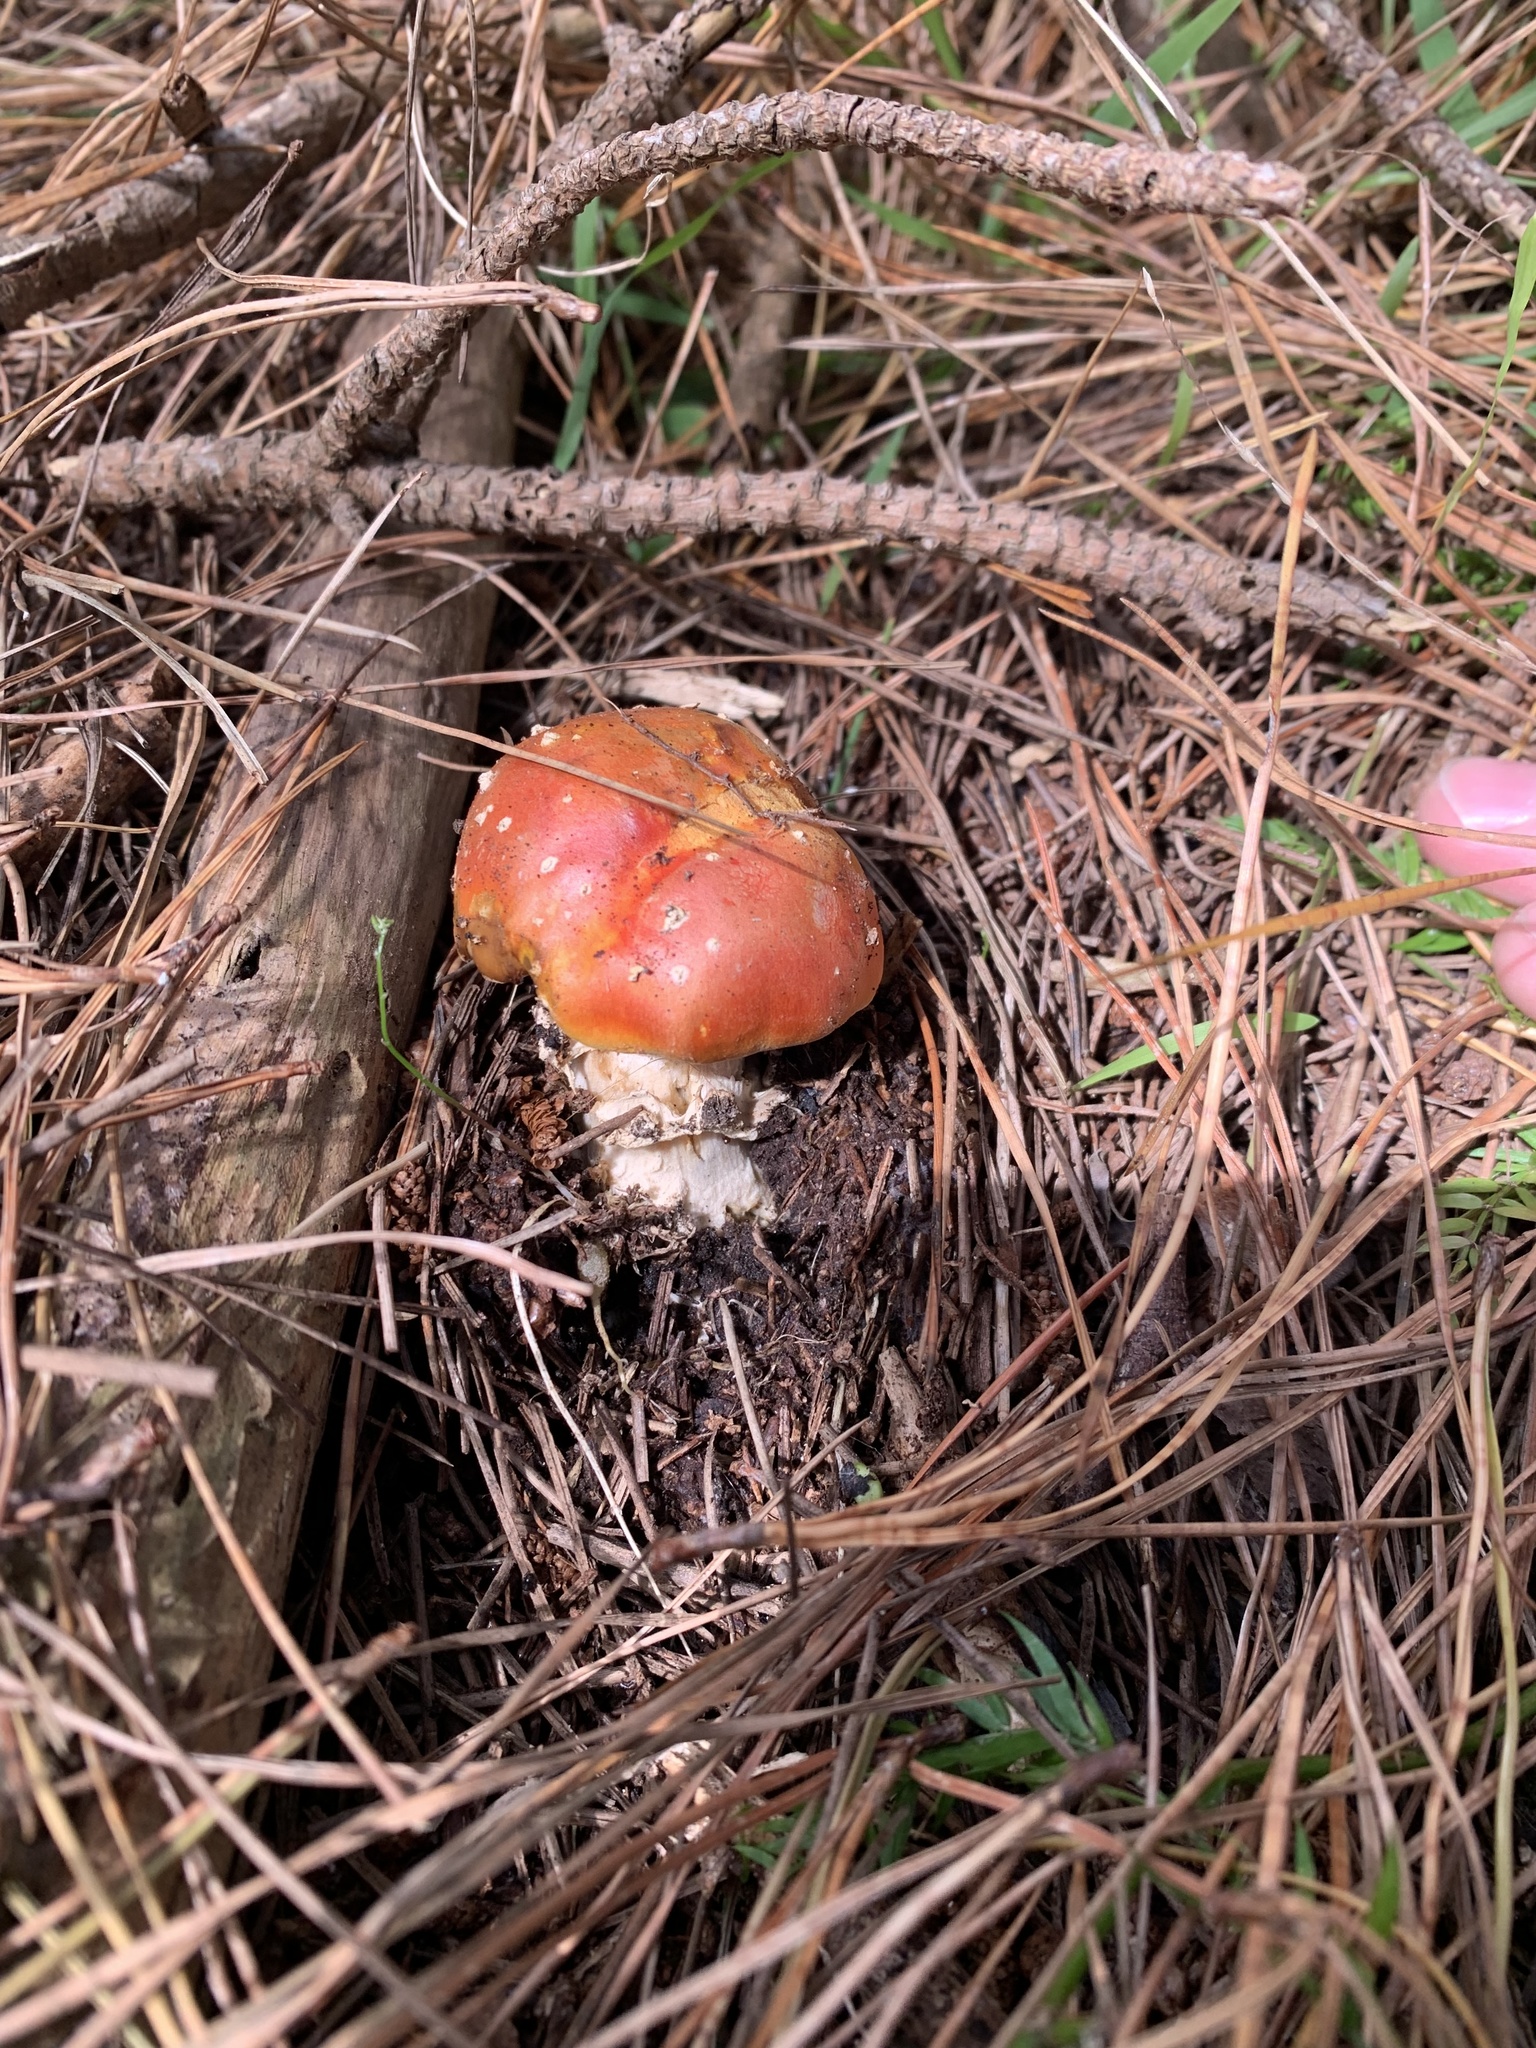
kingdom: Fungi
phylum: Basidiomycota
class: Agaricomycetes
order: Agaricales
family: Amanitaceae
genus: Amanita
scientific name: Amanita muscaria
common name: Fly agaric
